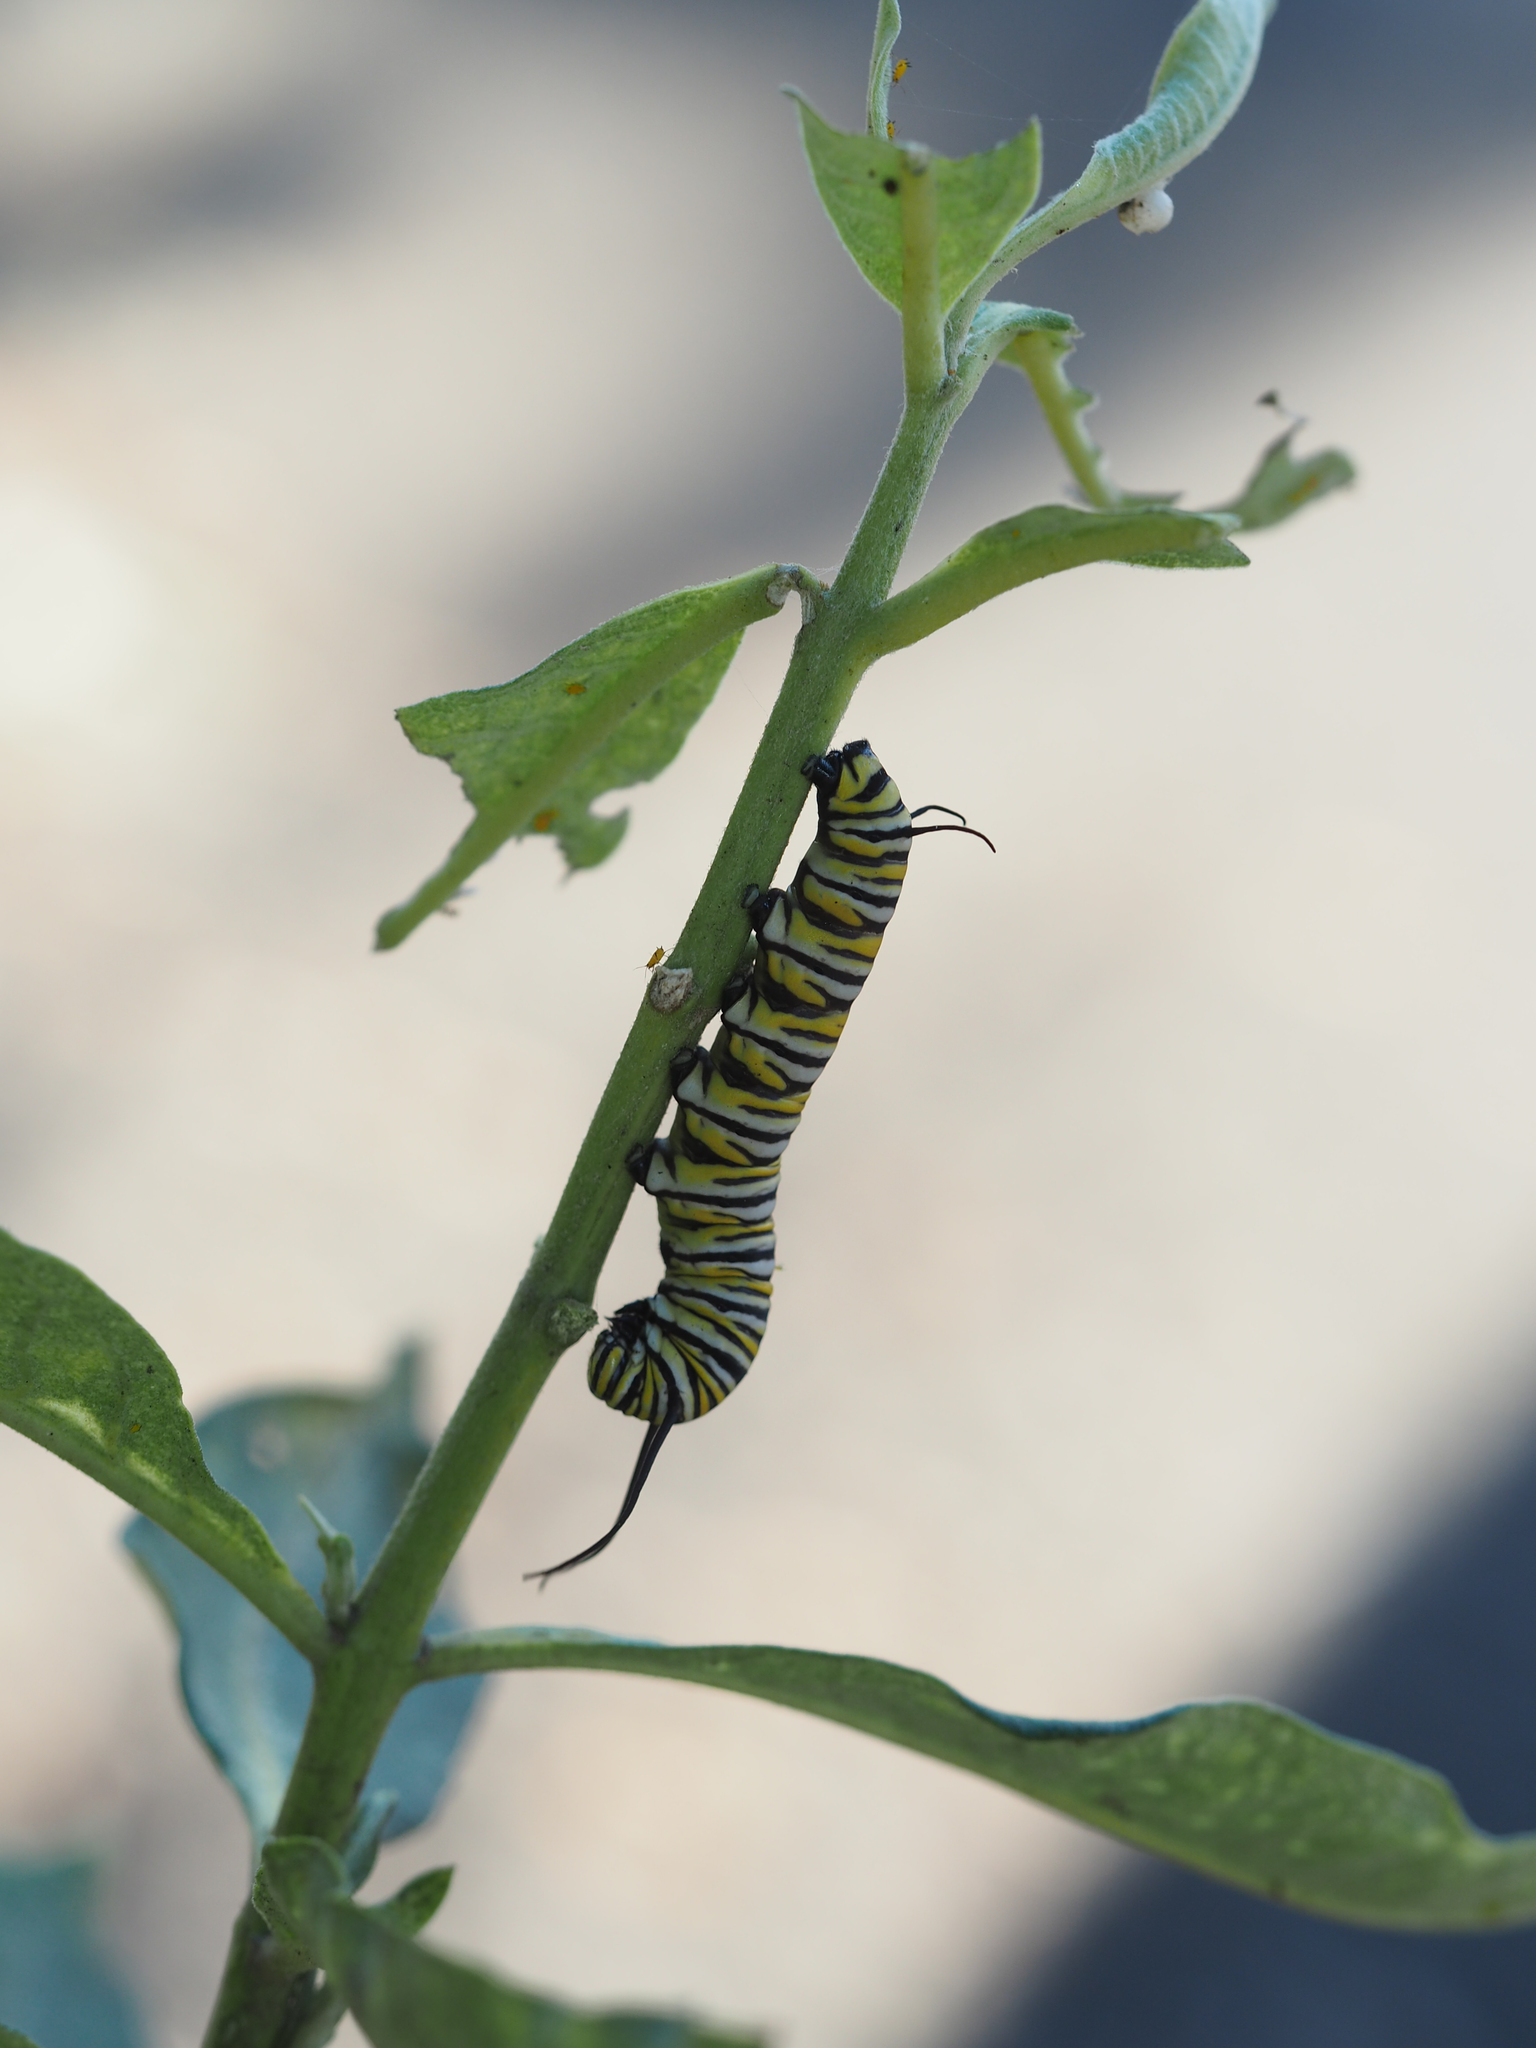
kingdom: Animalia
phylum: Arthropoda
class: Insecta
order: Lepidoptera
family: Nymphalidae
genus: Danaus
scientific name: Danaus plexippus
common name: Monarch
